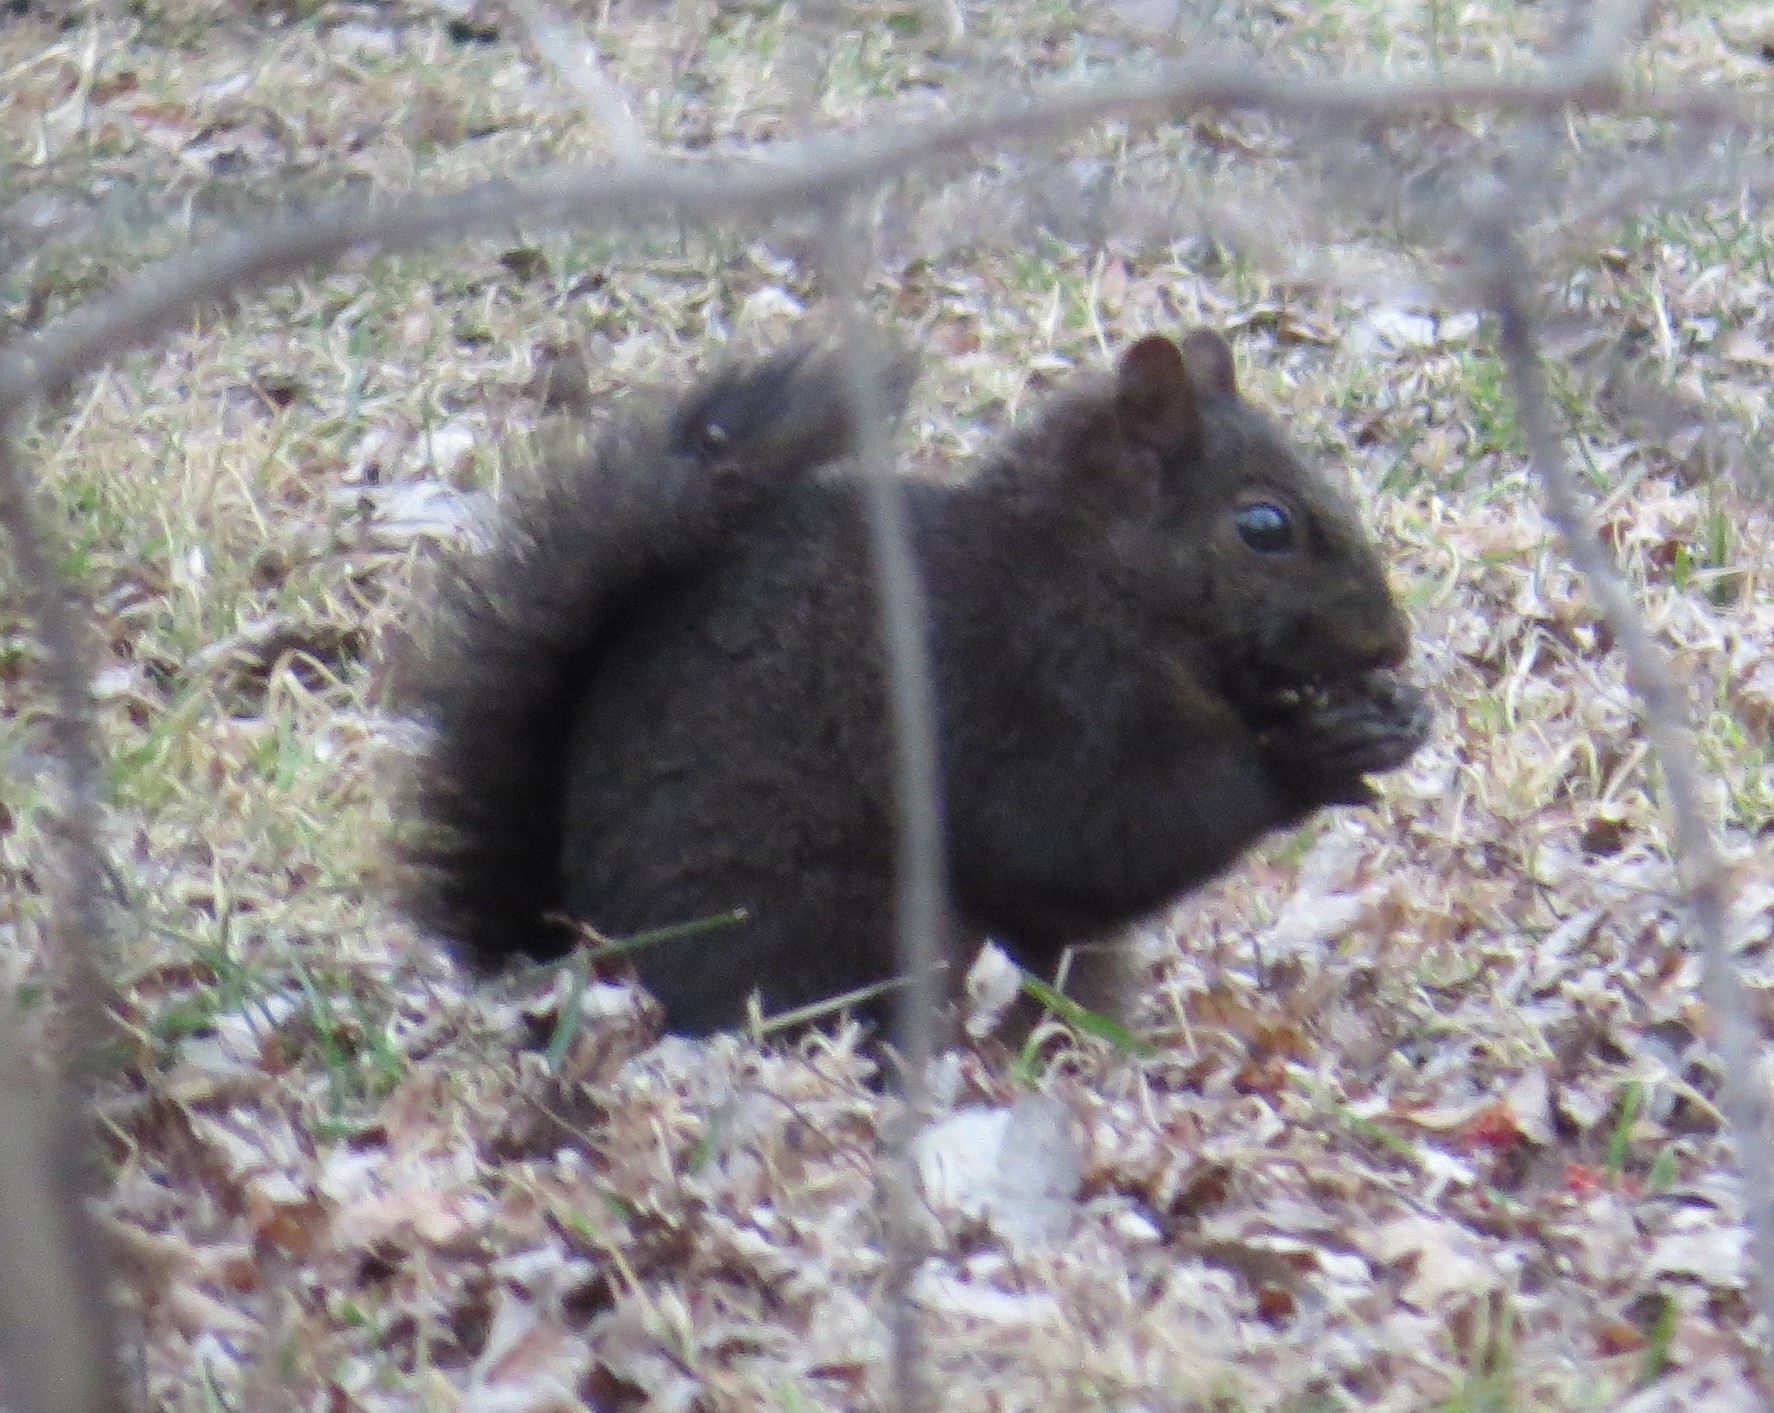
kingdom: Animalia
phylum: Chordata
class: Mammalia
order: Rodentia
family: Sciuridae
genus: Sciurus
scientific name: Sciurus carolinensis
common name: Eastern gray squirrel
